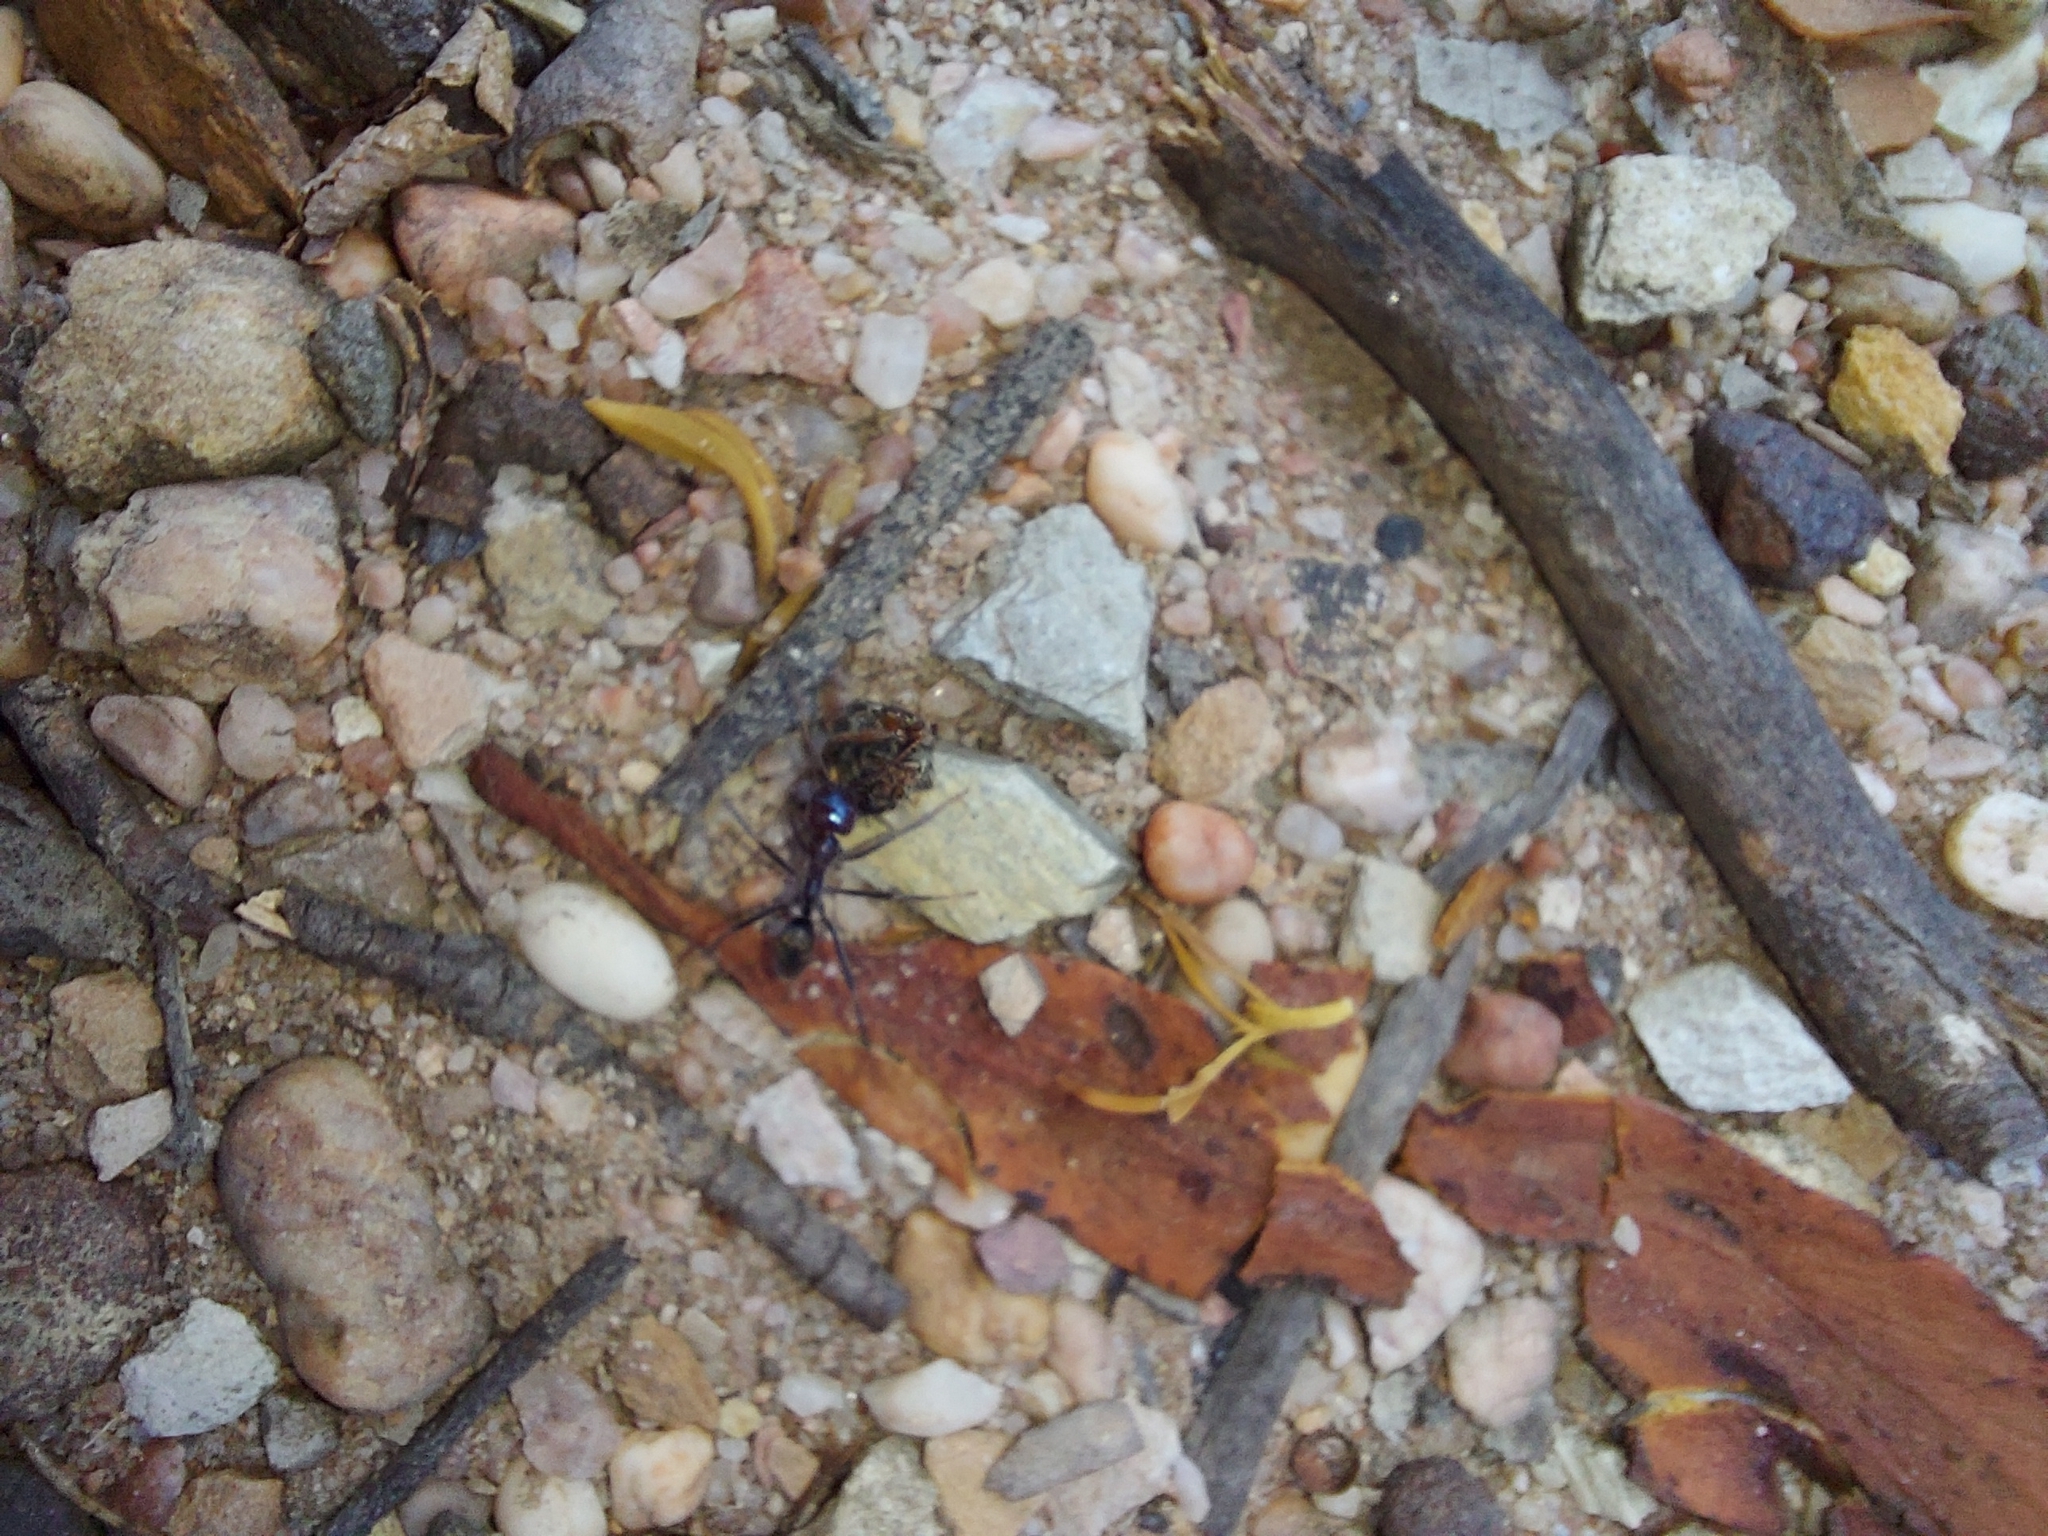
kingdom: Animalia
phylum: Arthropoda
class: Insecta
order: Hymenoptera
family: Formicidae
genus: Iridomyrmex
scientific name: Iridomyrmex purpureus
